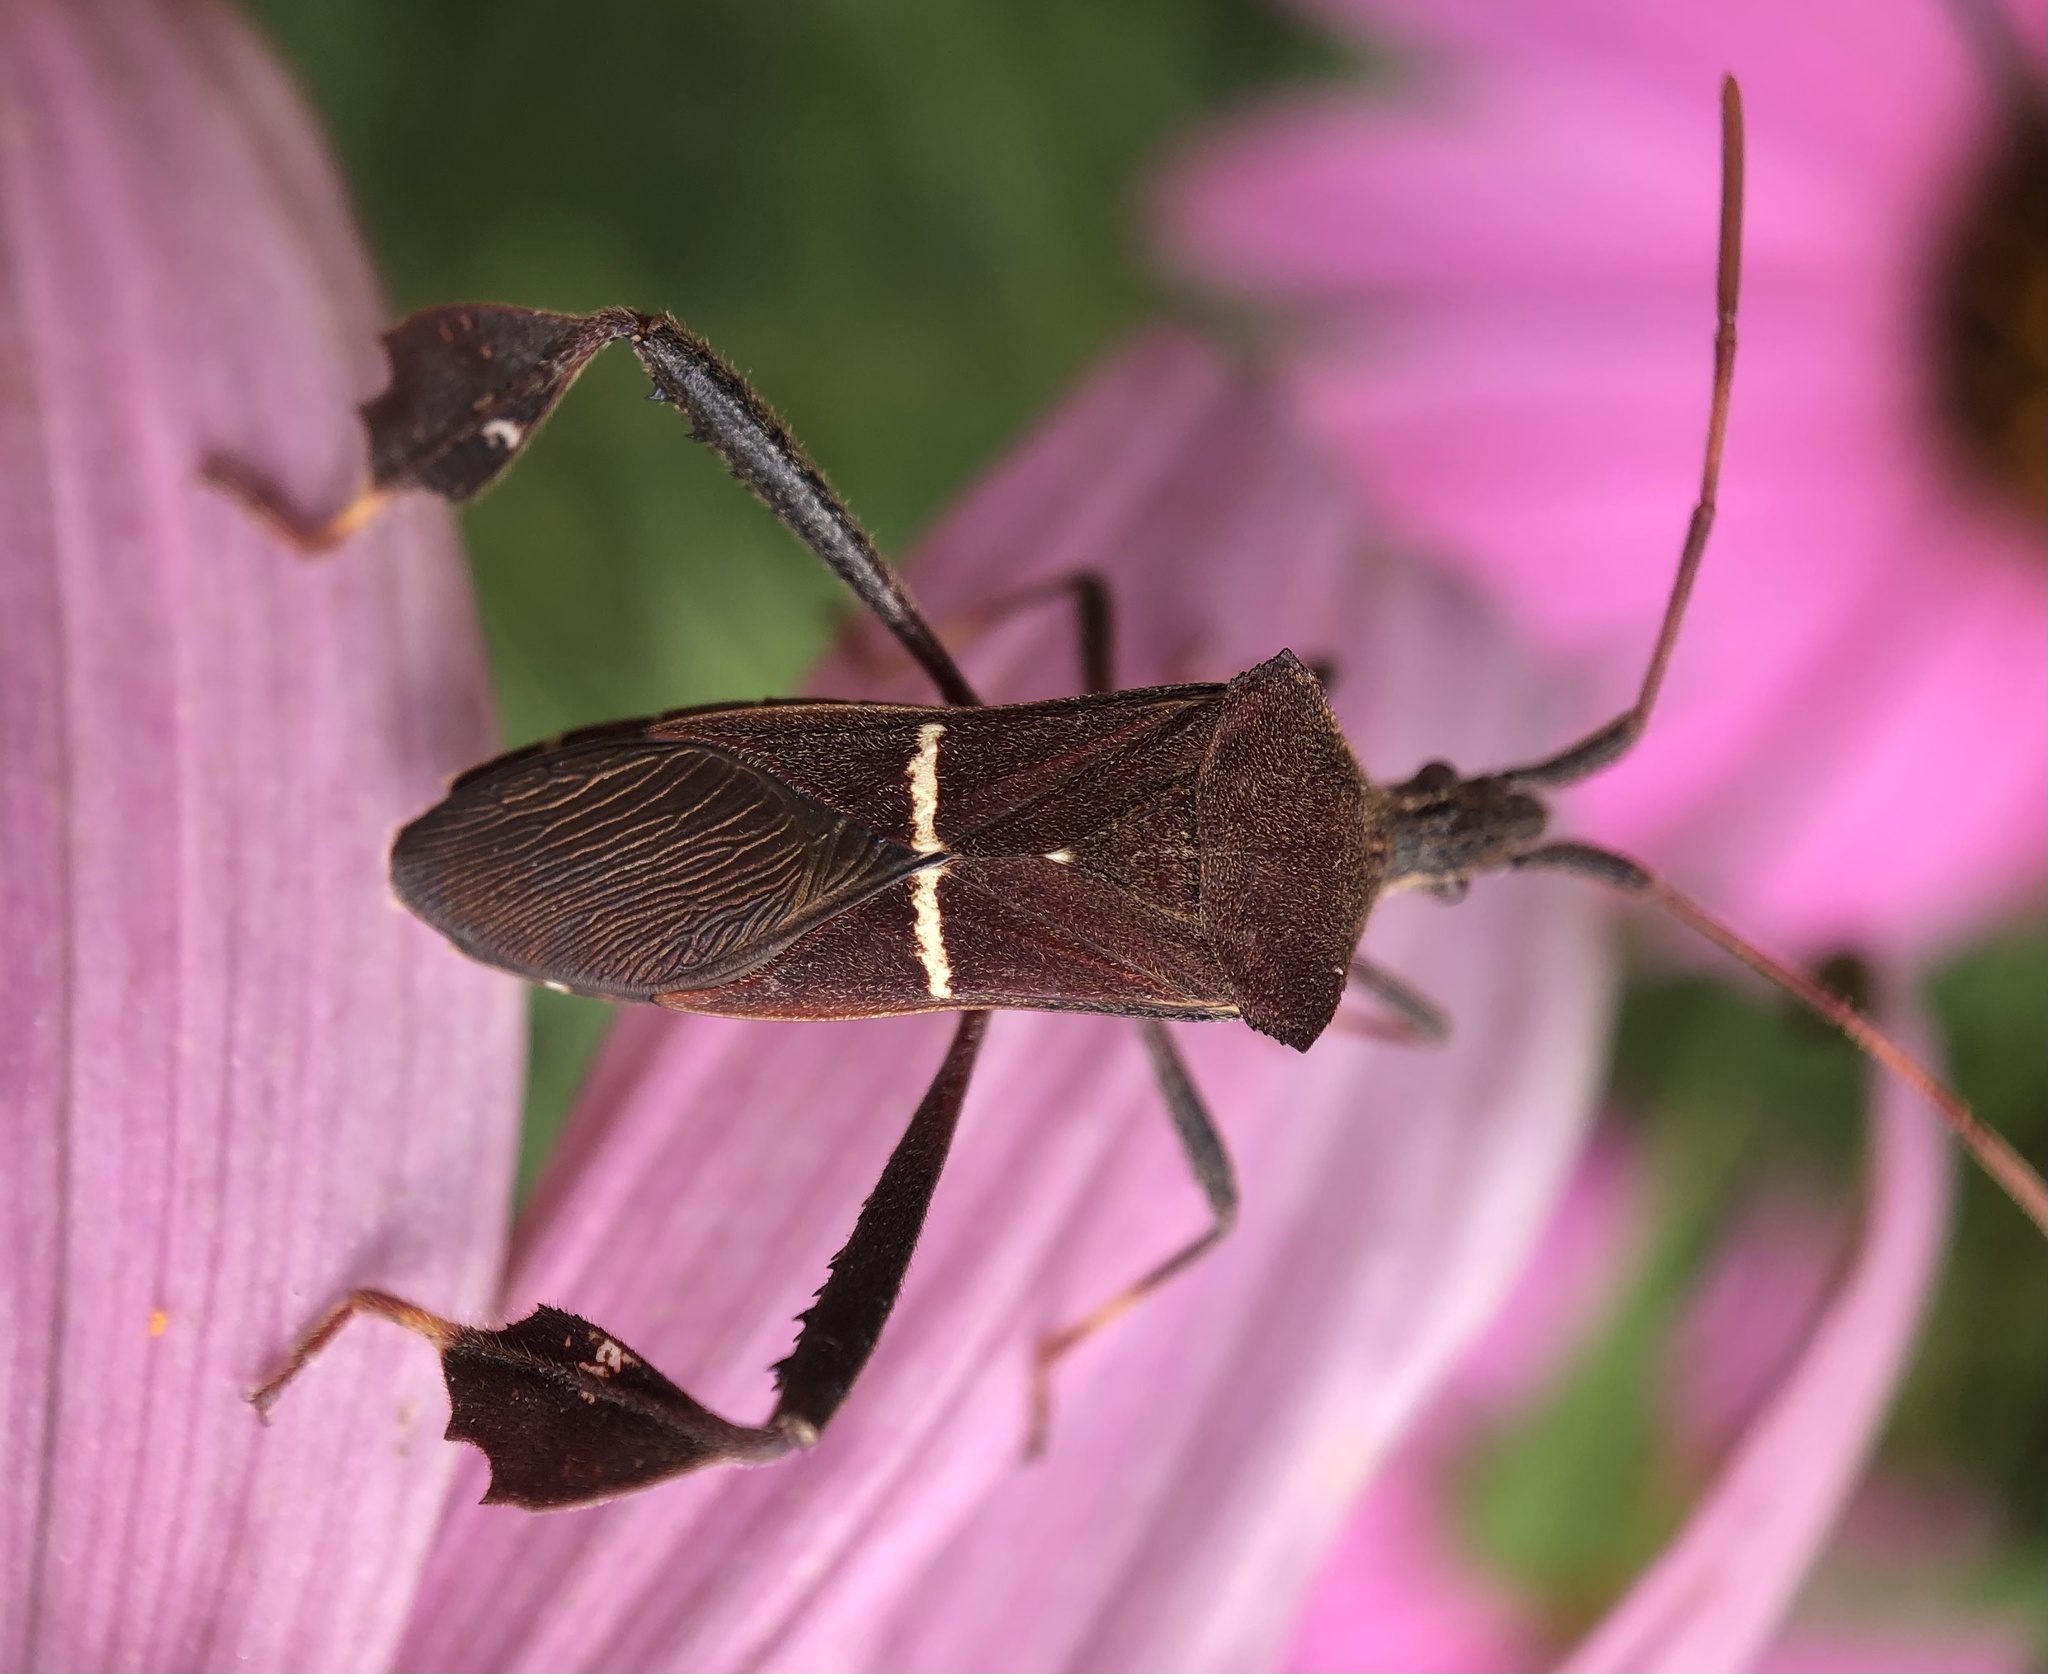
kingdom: Animalia
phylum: Arthropoda
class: Insecta
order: Hemiptera
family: Coreidae
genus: Leptoglossus
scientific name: Leptoglossus phyllopus
